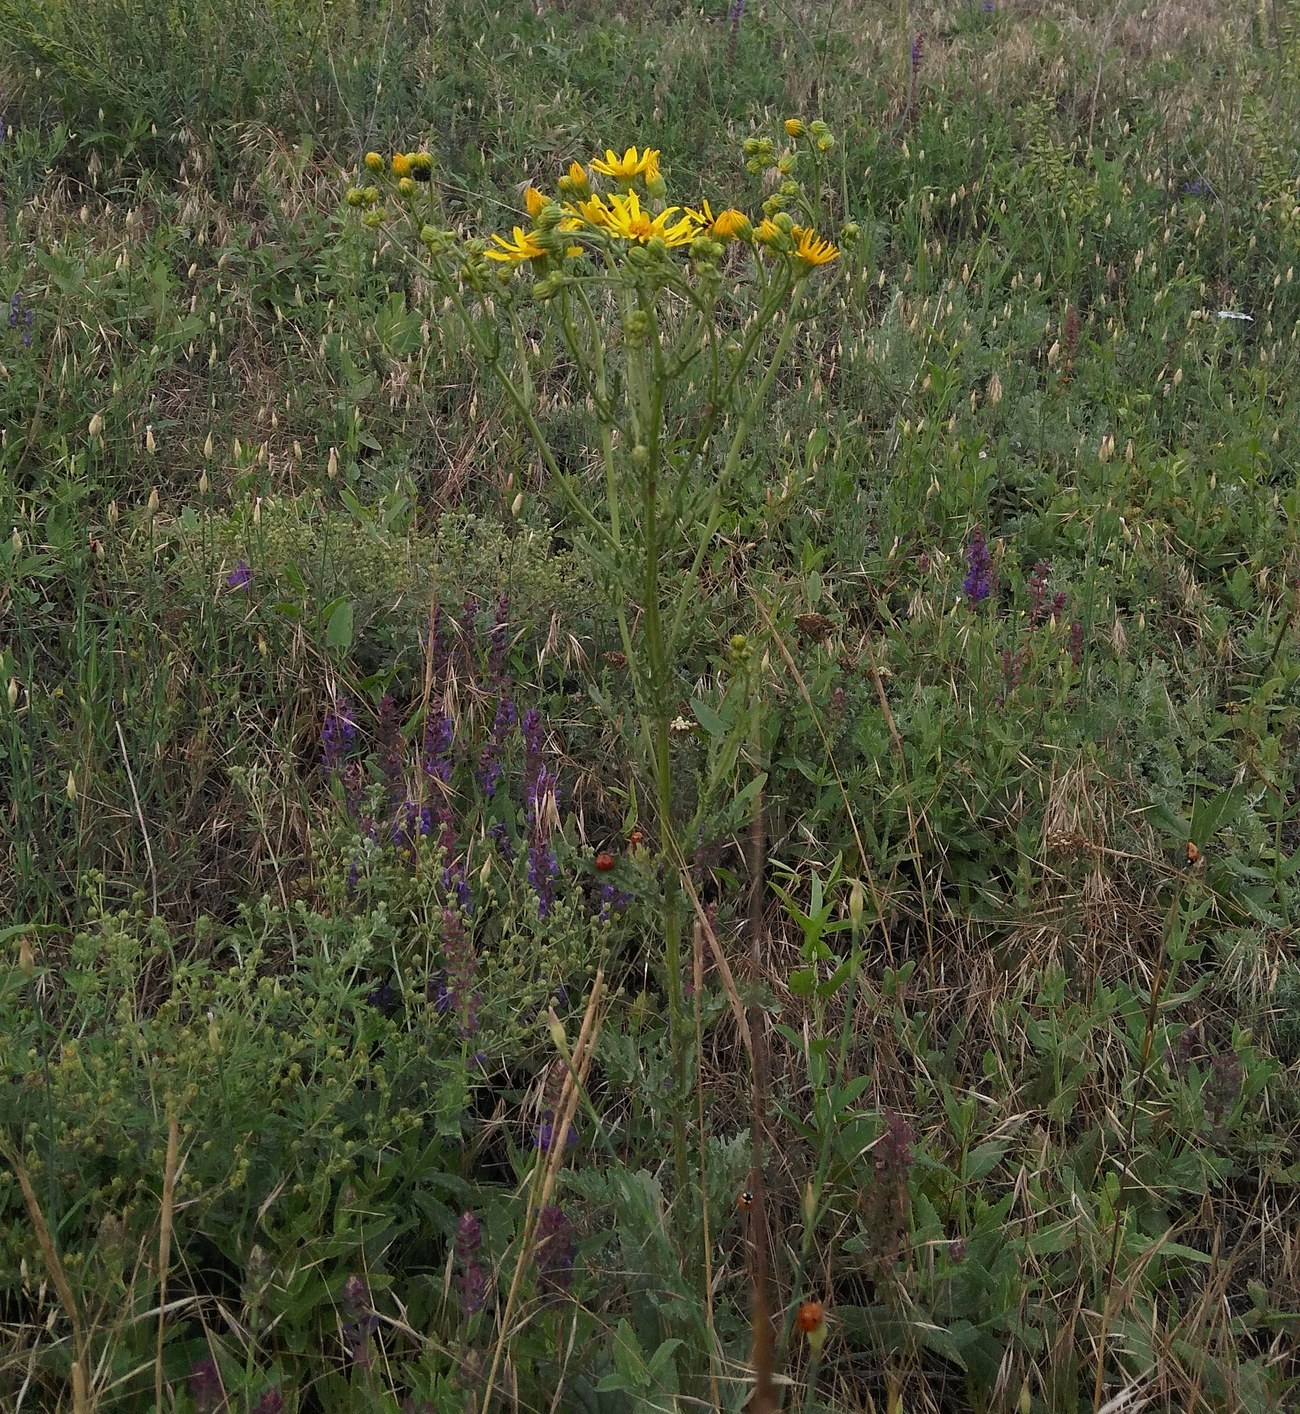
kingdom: Plantae
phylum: Tracheophyta
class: Magnoliopsida
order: Asterales
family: Asteraceae
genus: Jacobaea
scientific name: Jacobaea vulgaris
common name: Stinking willie
